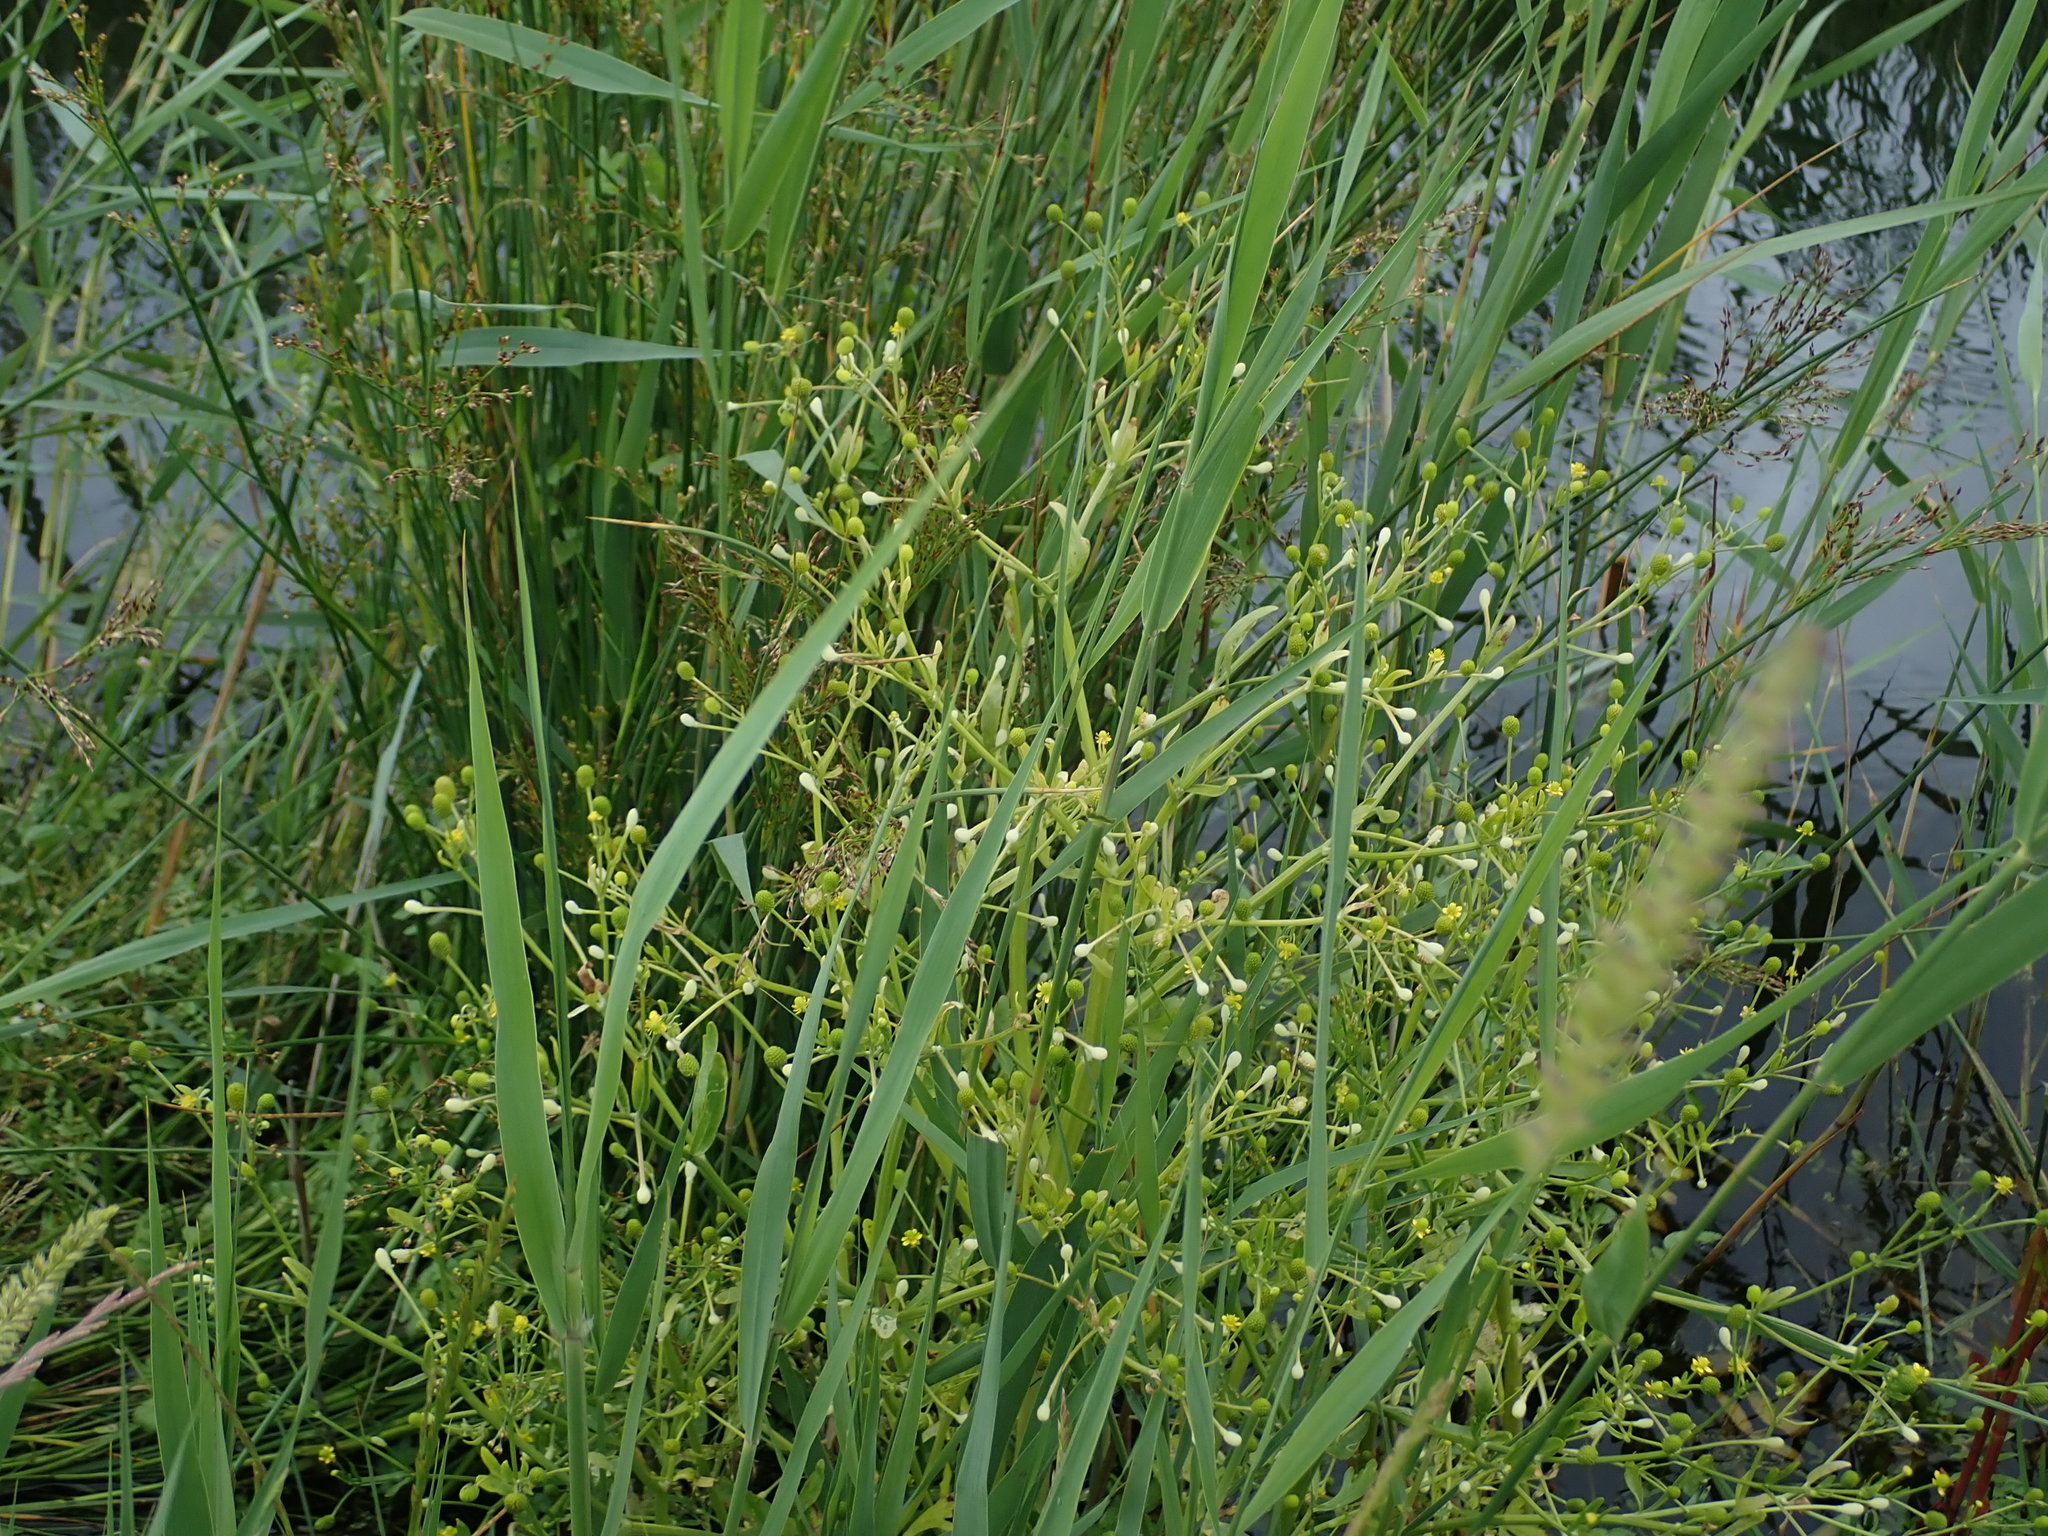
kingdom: Plantae
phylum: Tracheophyta
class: Magnoliopsida
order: Ranunculales
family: Ranunculaceae
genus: Ranunculus
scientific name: Ranunculus sceleratus
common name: Celery-leaved buttercup
